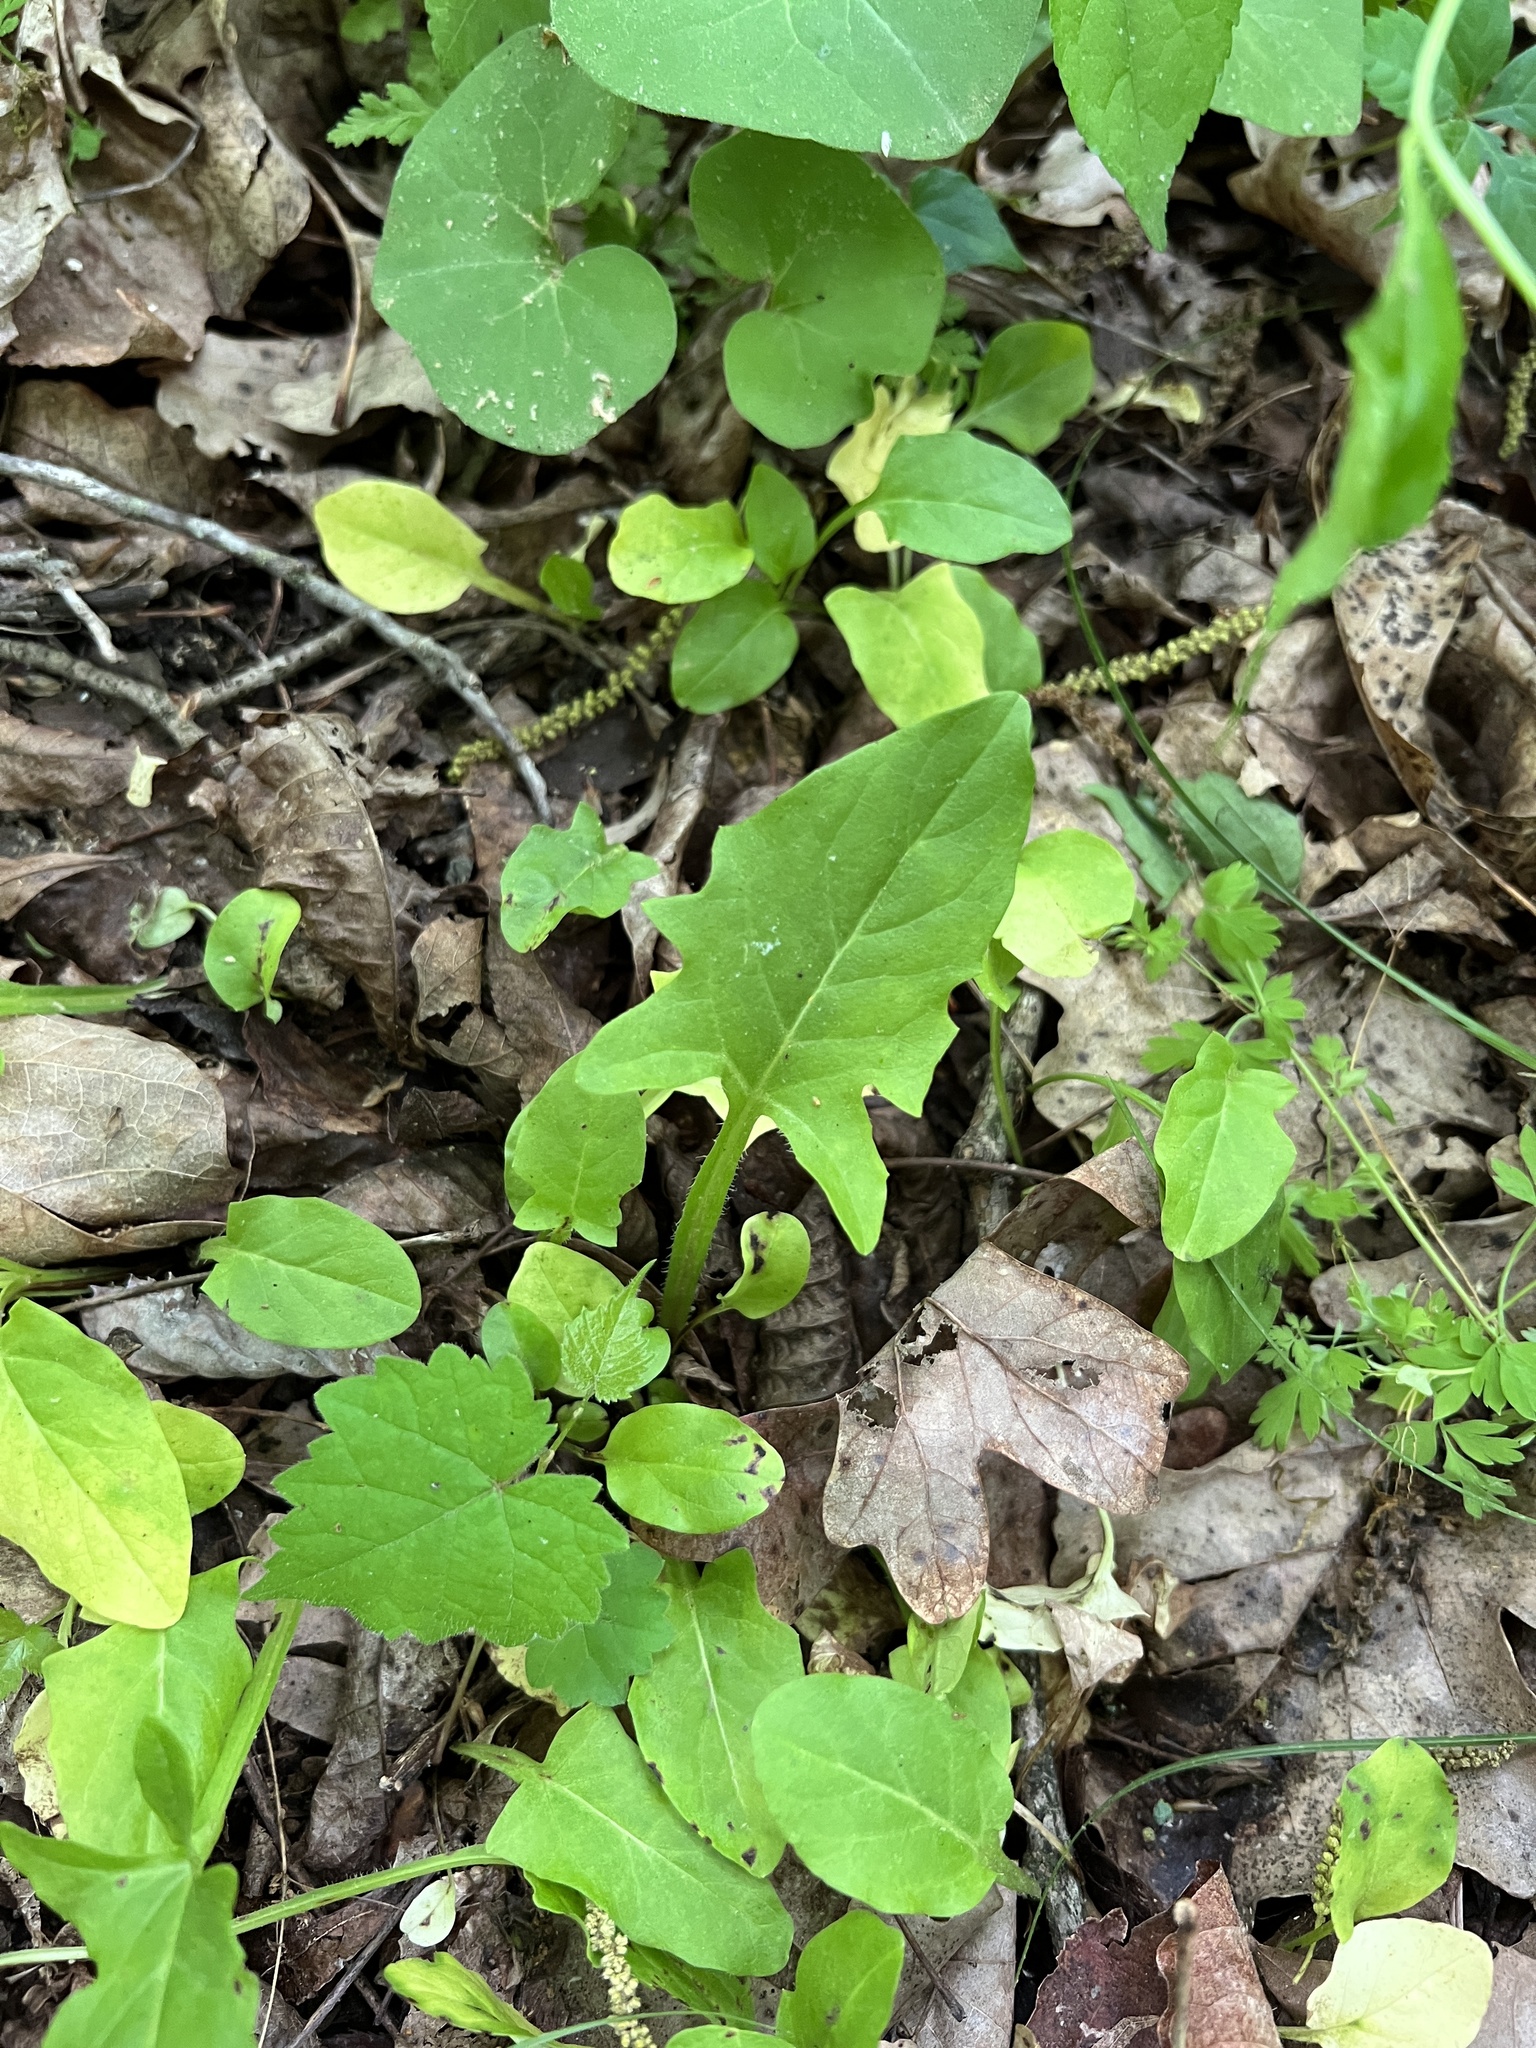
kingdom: Plantae
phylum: Tracheophyta
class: Magnoliopsida
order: Asterales
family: Asteraceae
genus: Nabalus
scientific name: Nabalus crepidineus
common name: Nodding rattlesnakeroot
